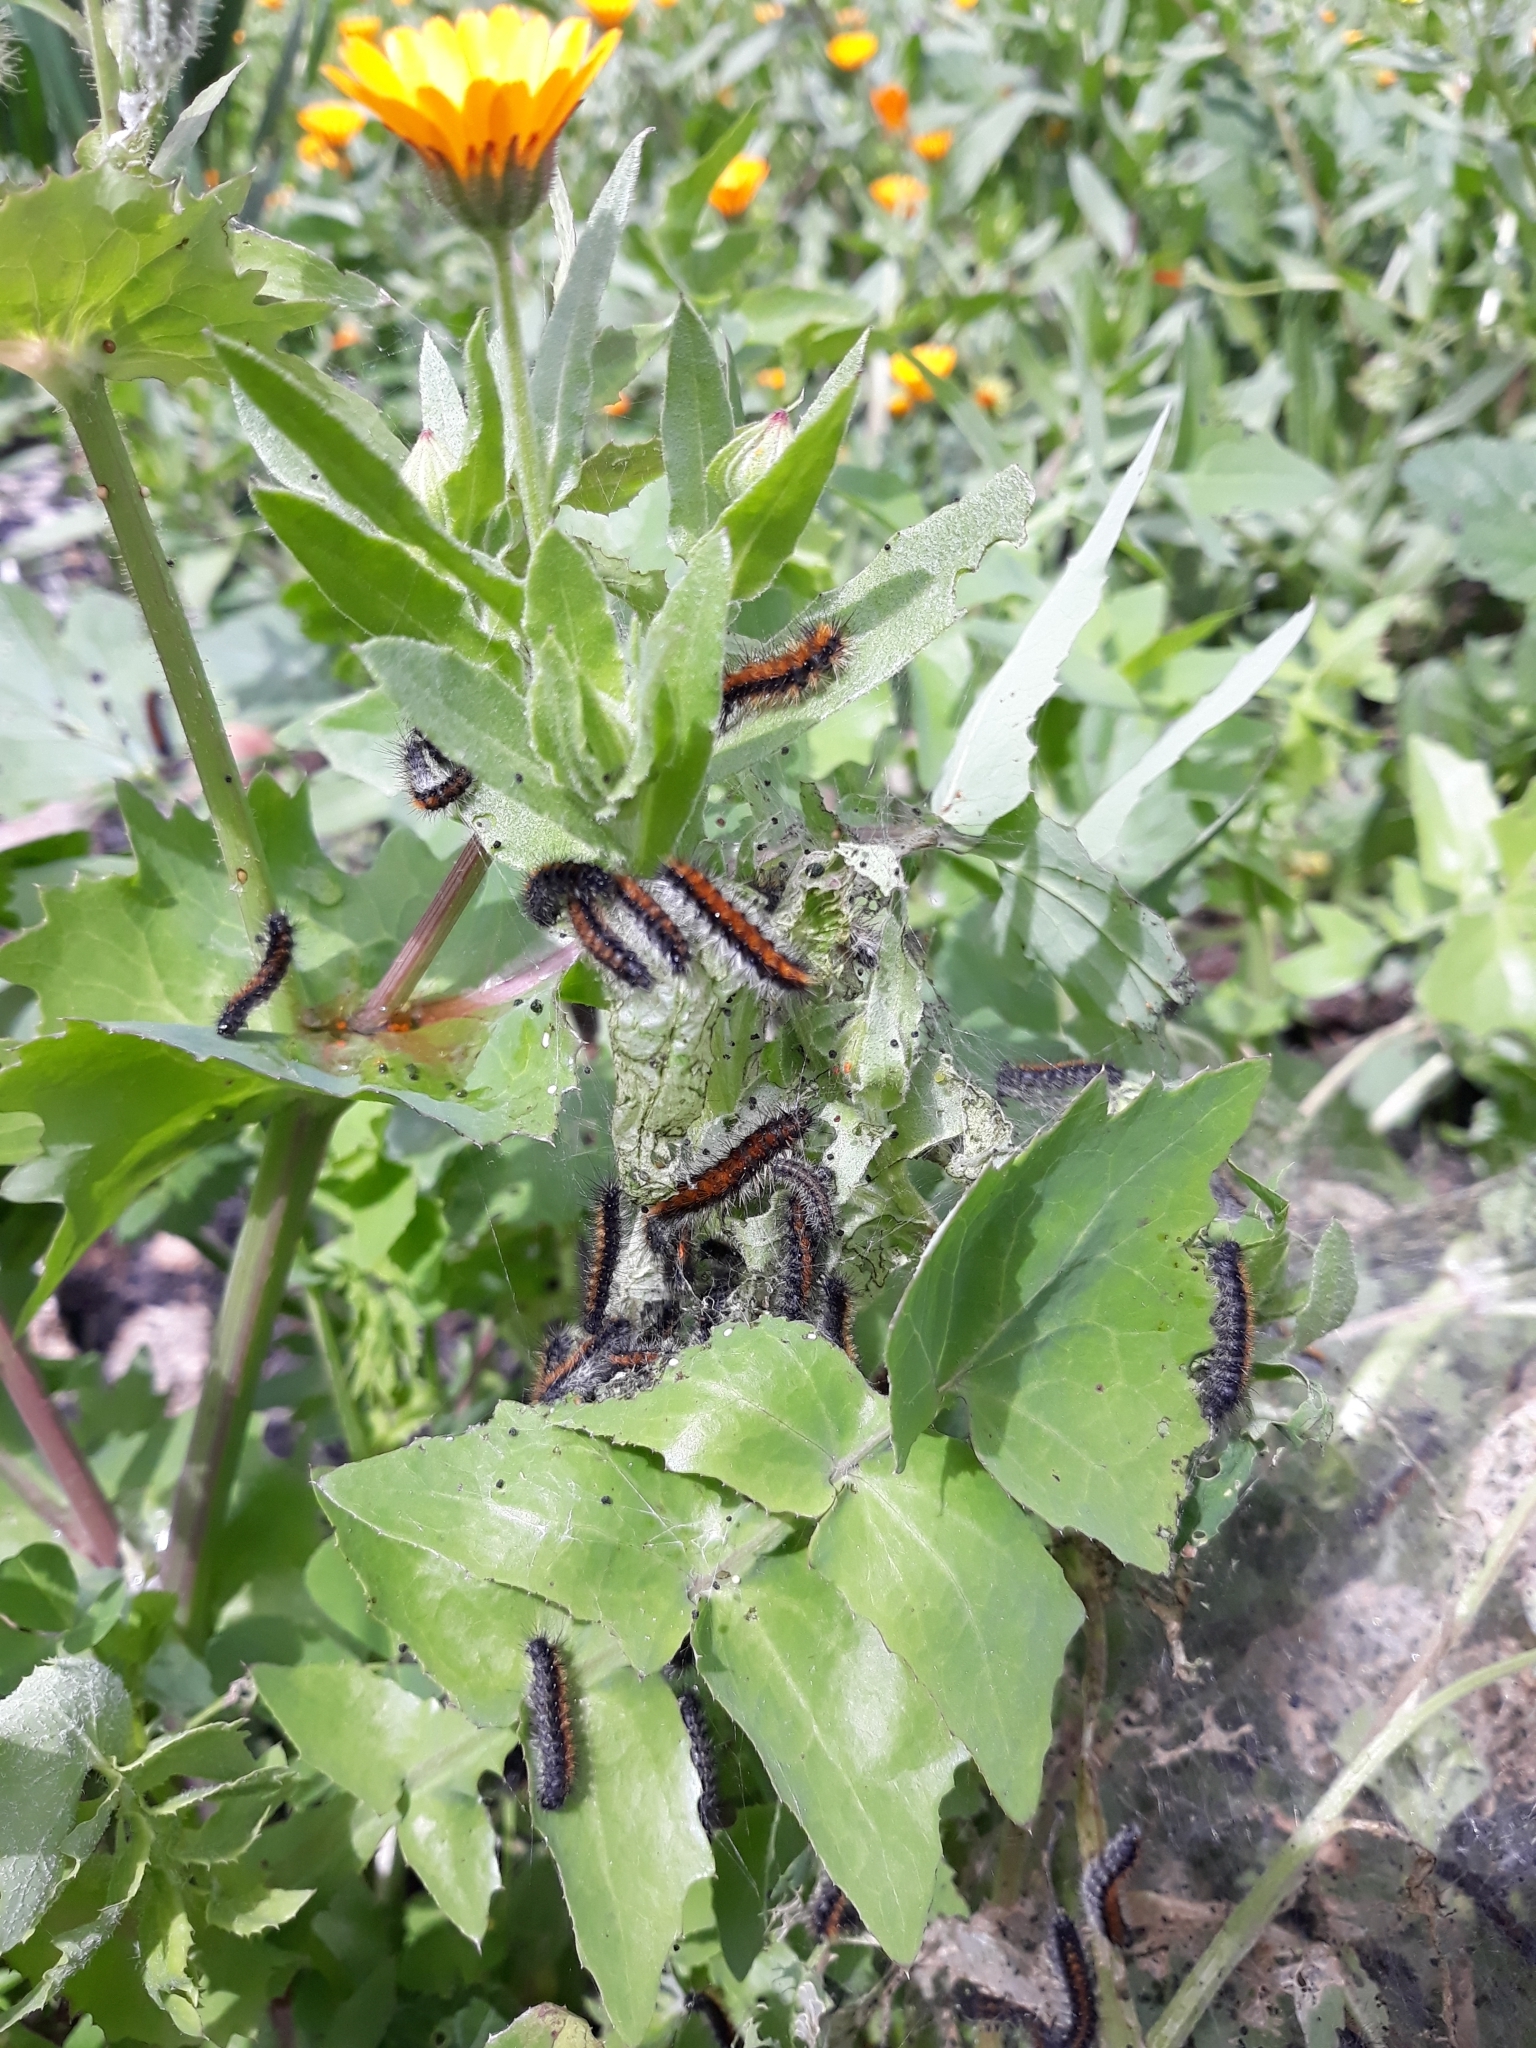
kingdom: Plantae
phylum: Tracheophyta
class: Magnoliopsida
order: Asterales
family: Asteraceae
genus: Calendula
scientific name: Calendula stellata
